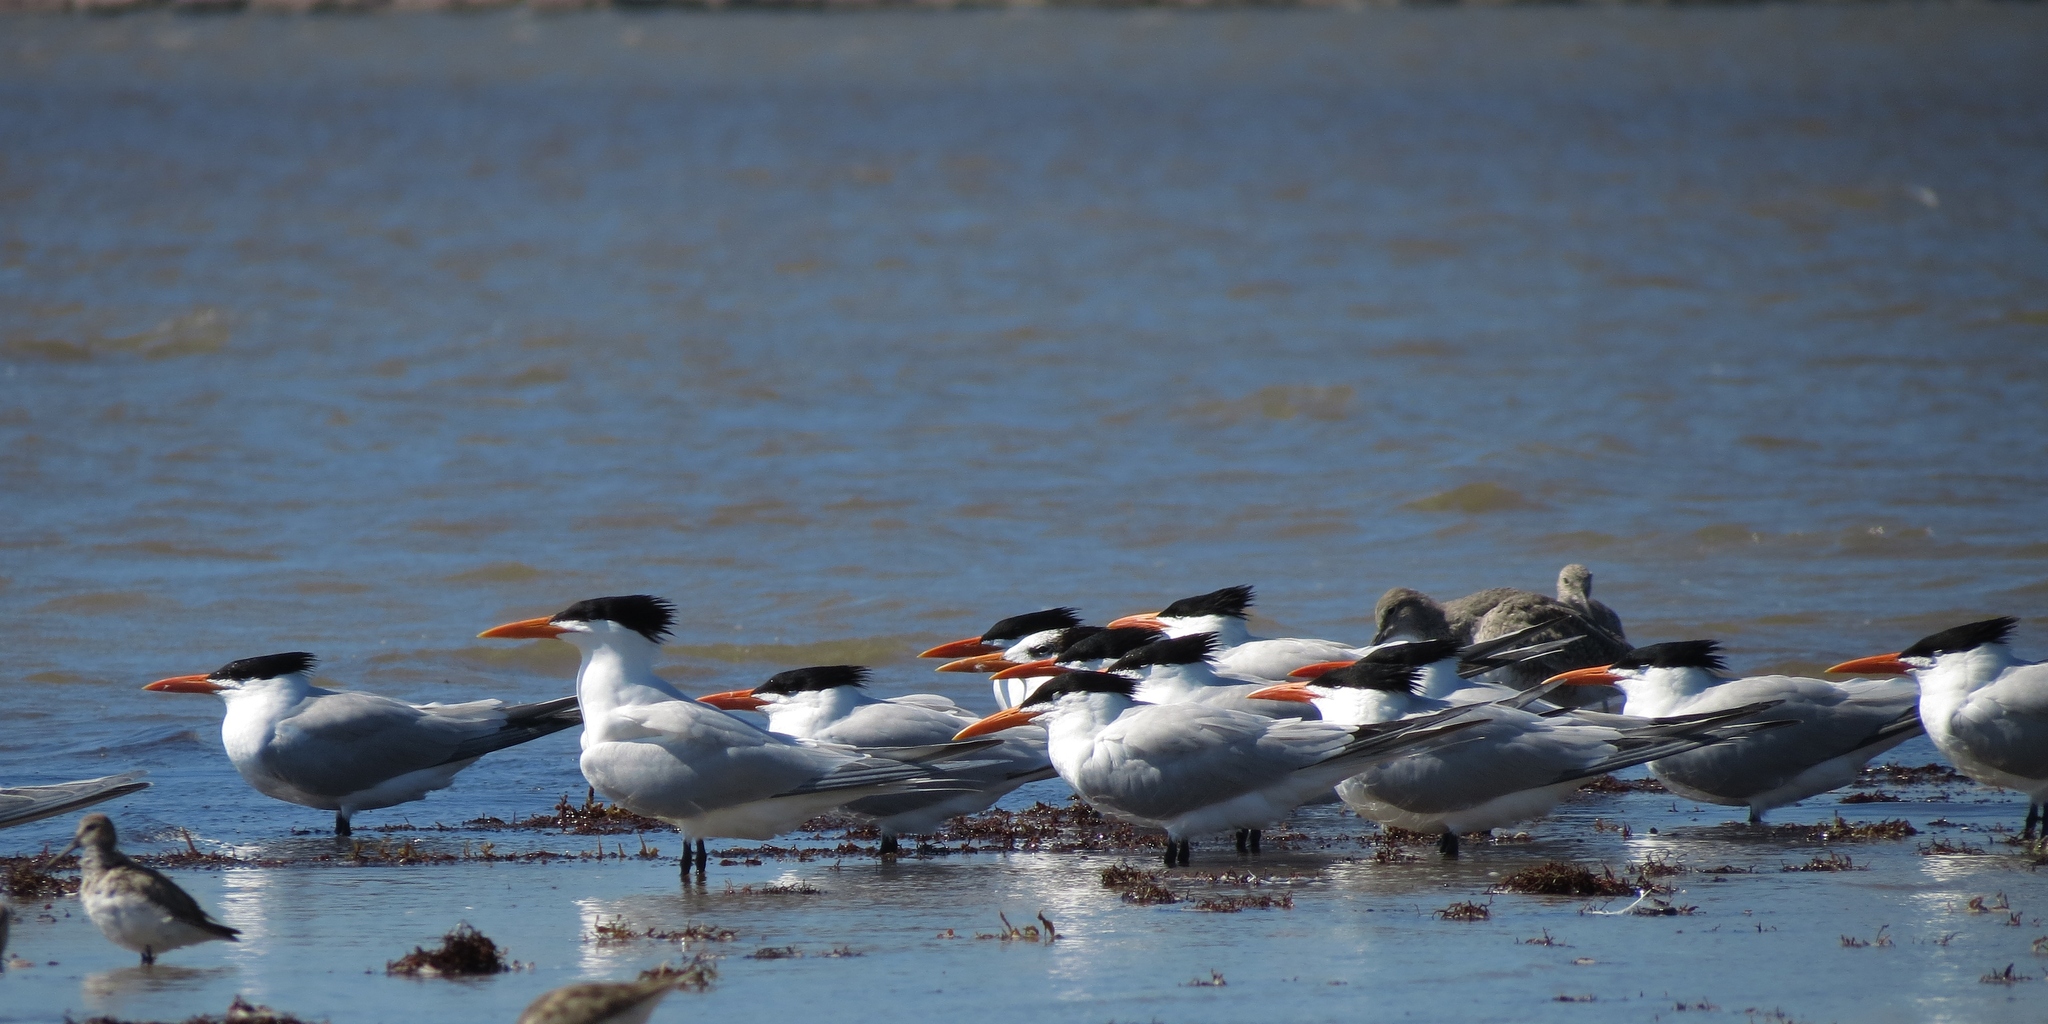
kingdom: Animalia
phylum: Chordata
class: Aves
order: Charadriiformes
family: Laridae
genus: Thalasseus
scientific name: Thalasseus maximus
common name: Royal tern
